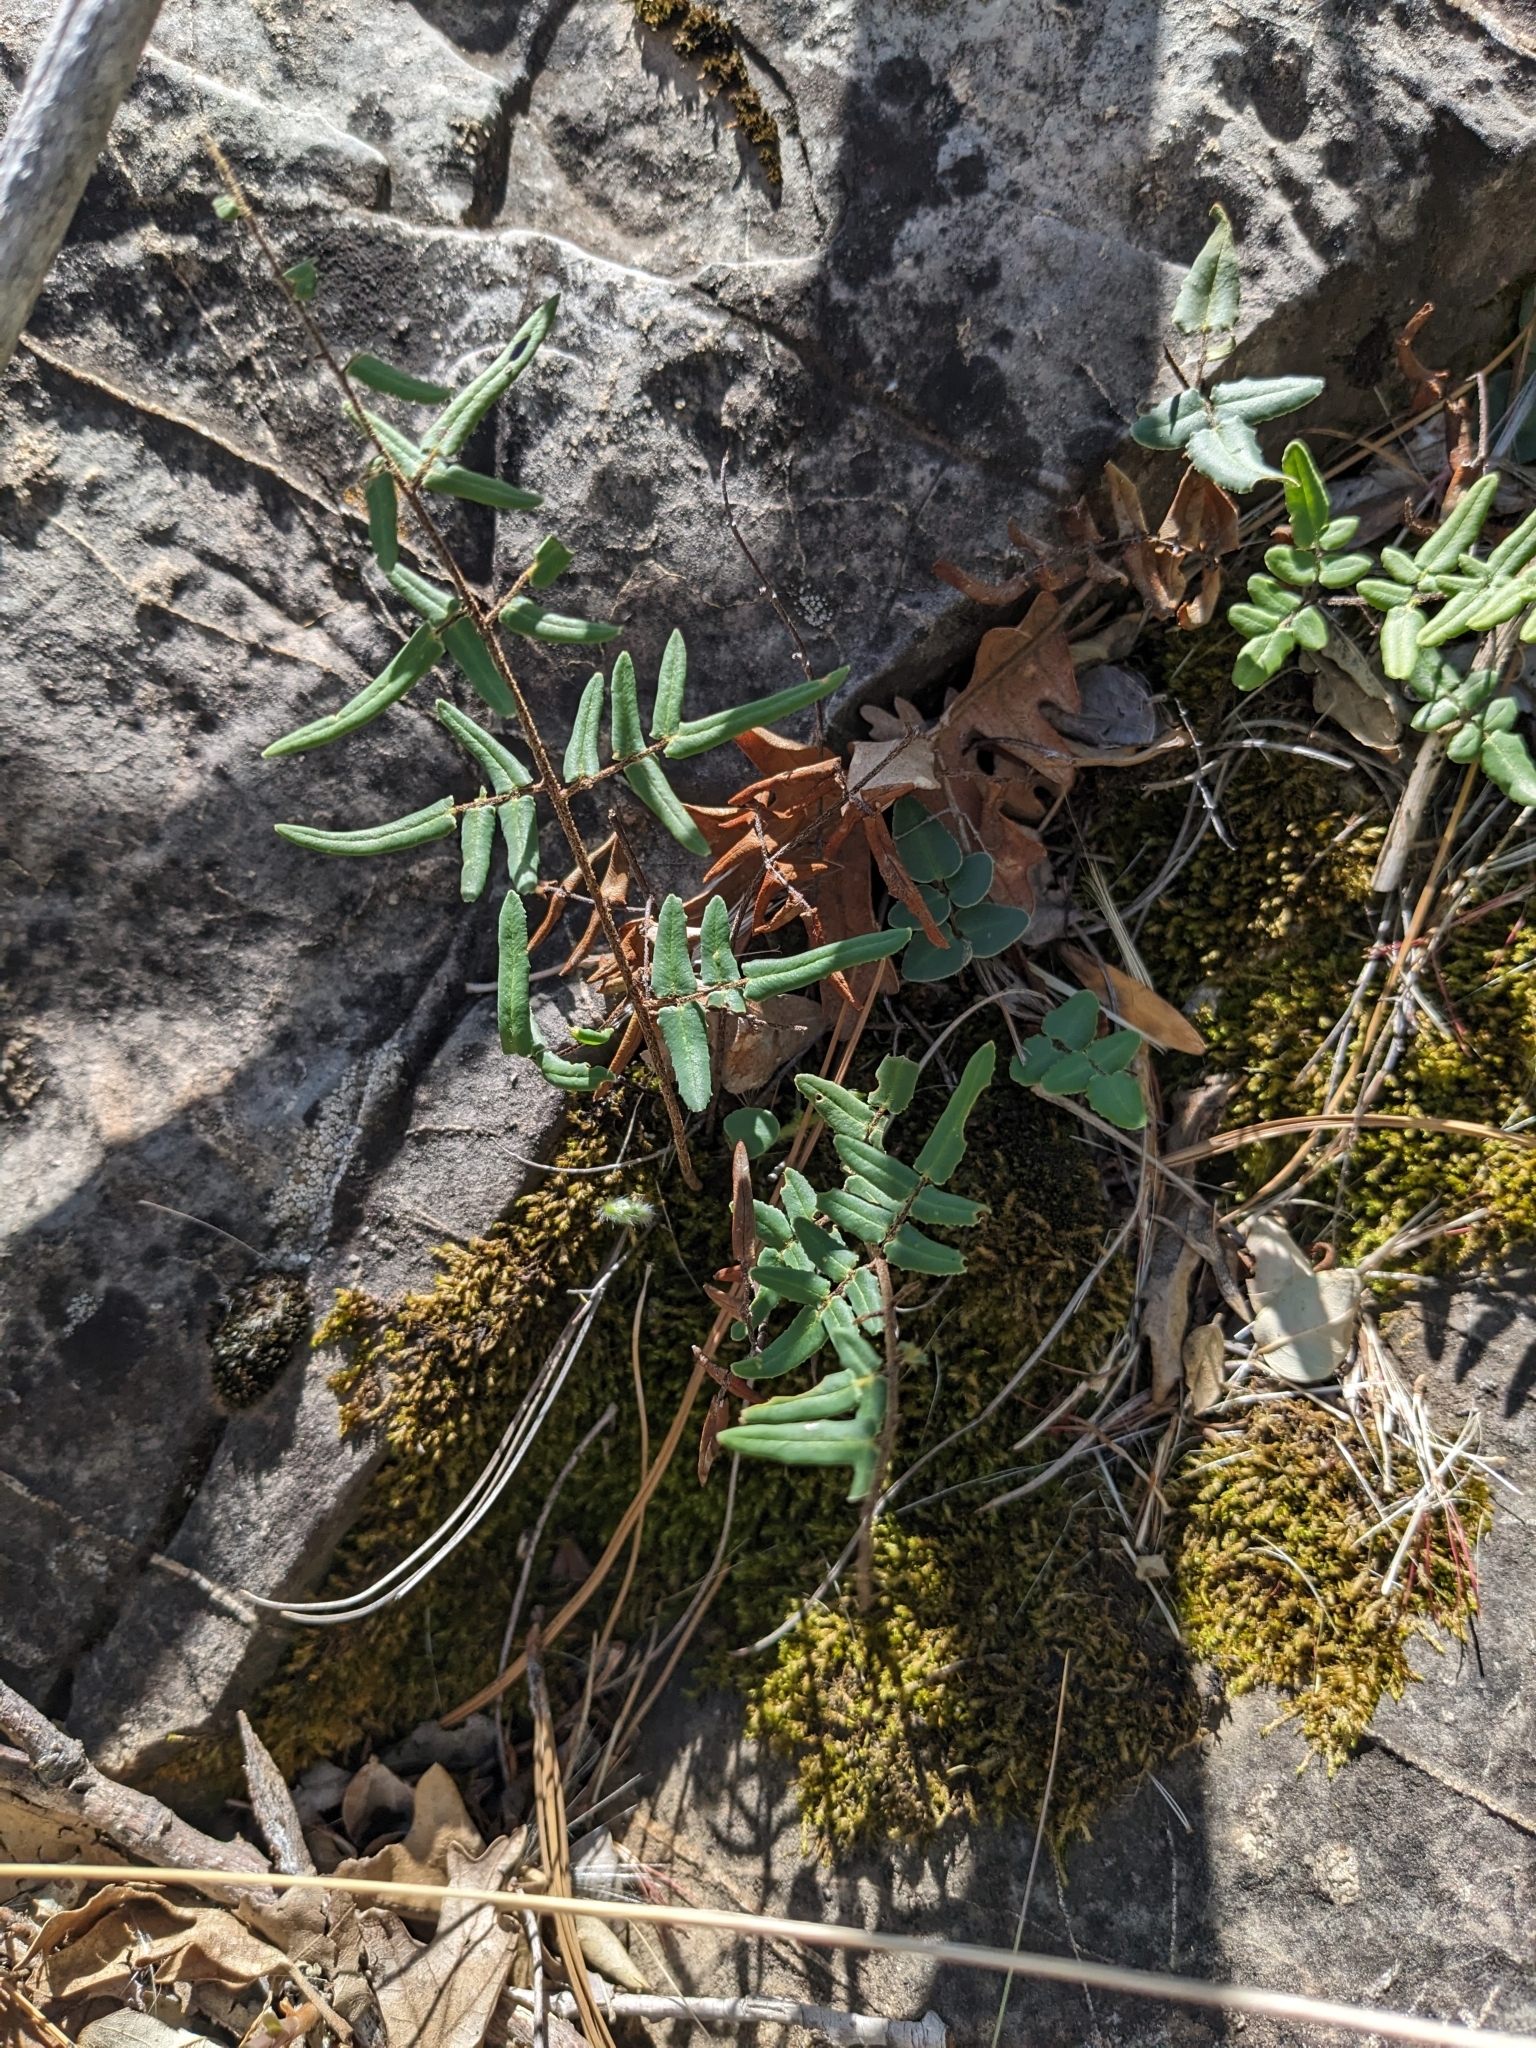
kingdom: Plantae
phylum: Tracheophyta
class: Polypodiopsida
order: Polypodiales
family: Pteridaceae
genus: Pellaea
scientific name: Pellaea atropurpurea
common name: Hairy cliffbrake
